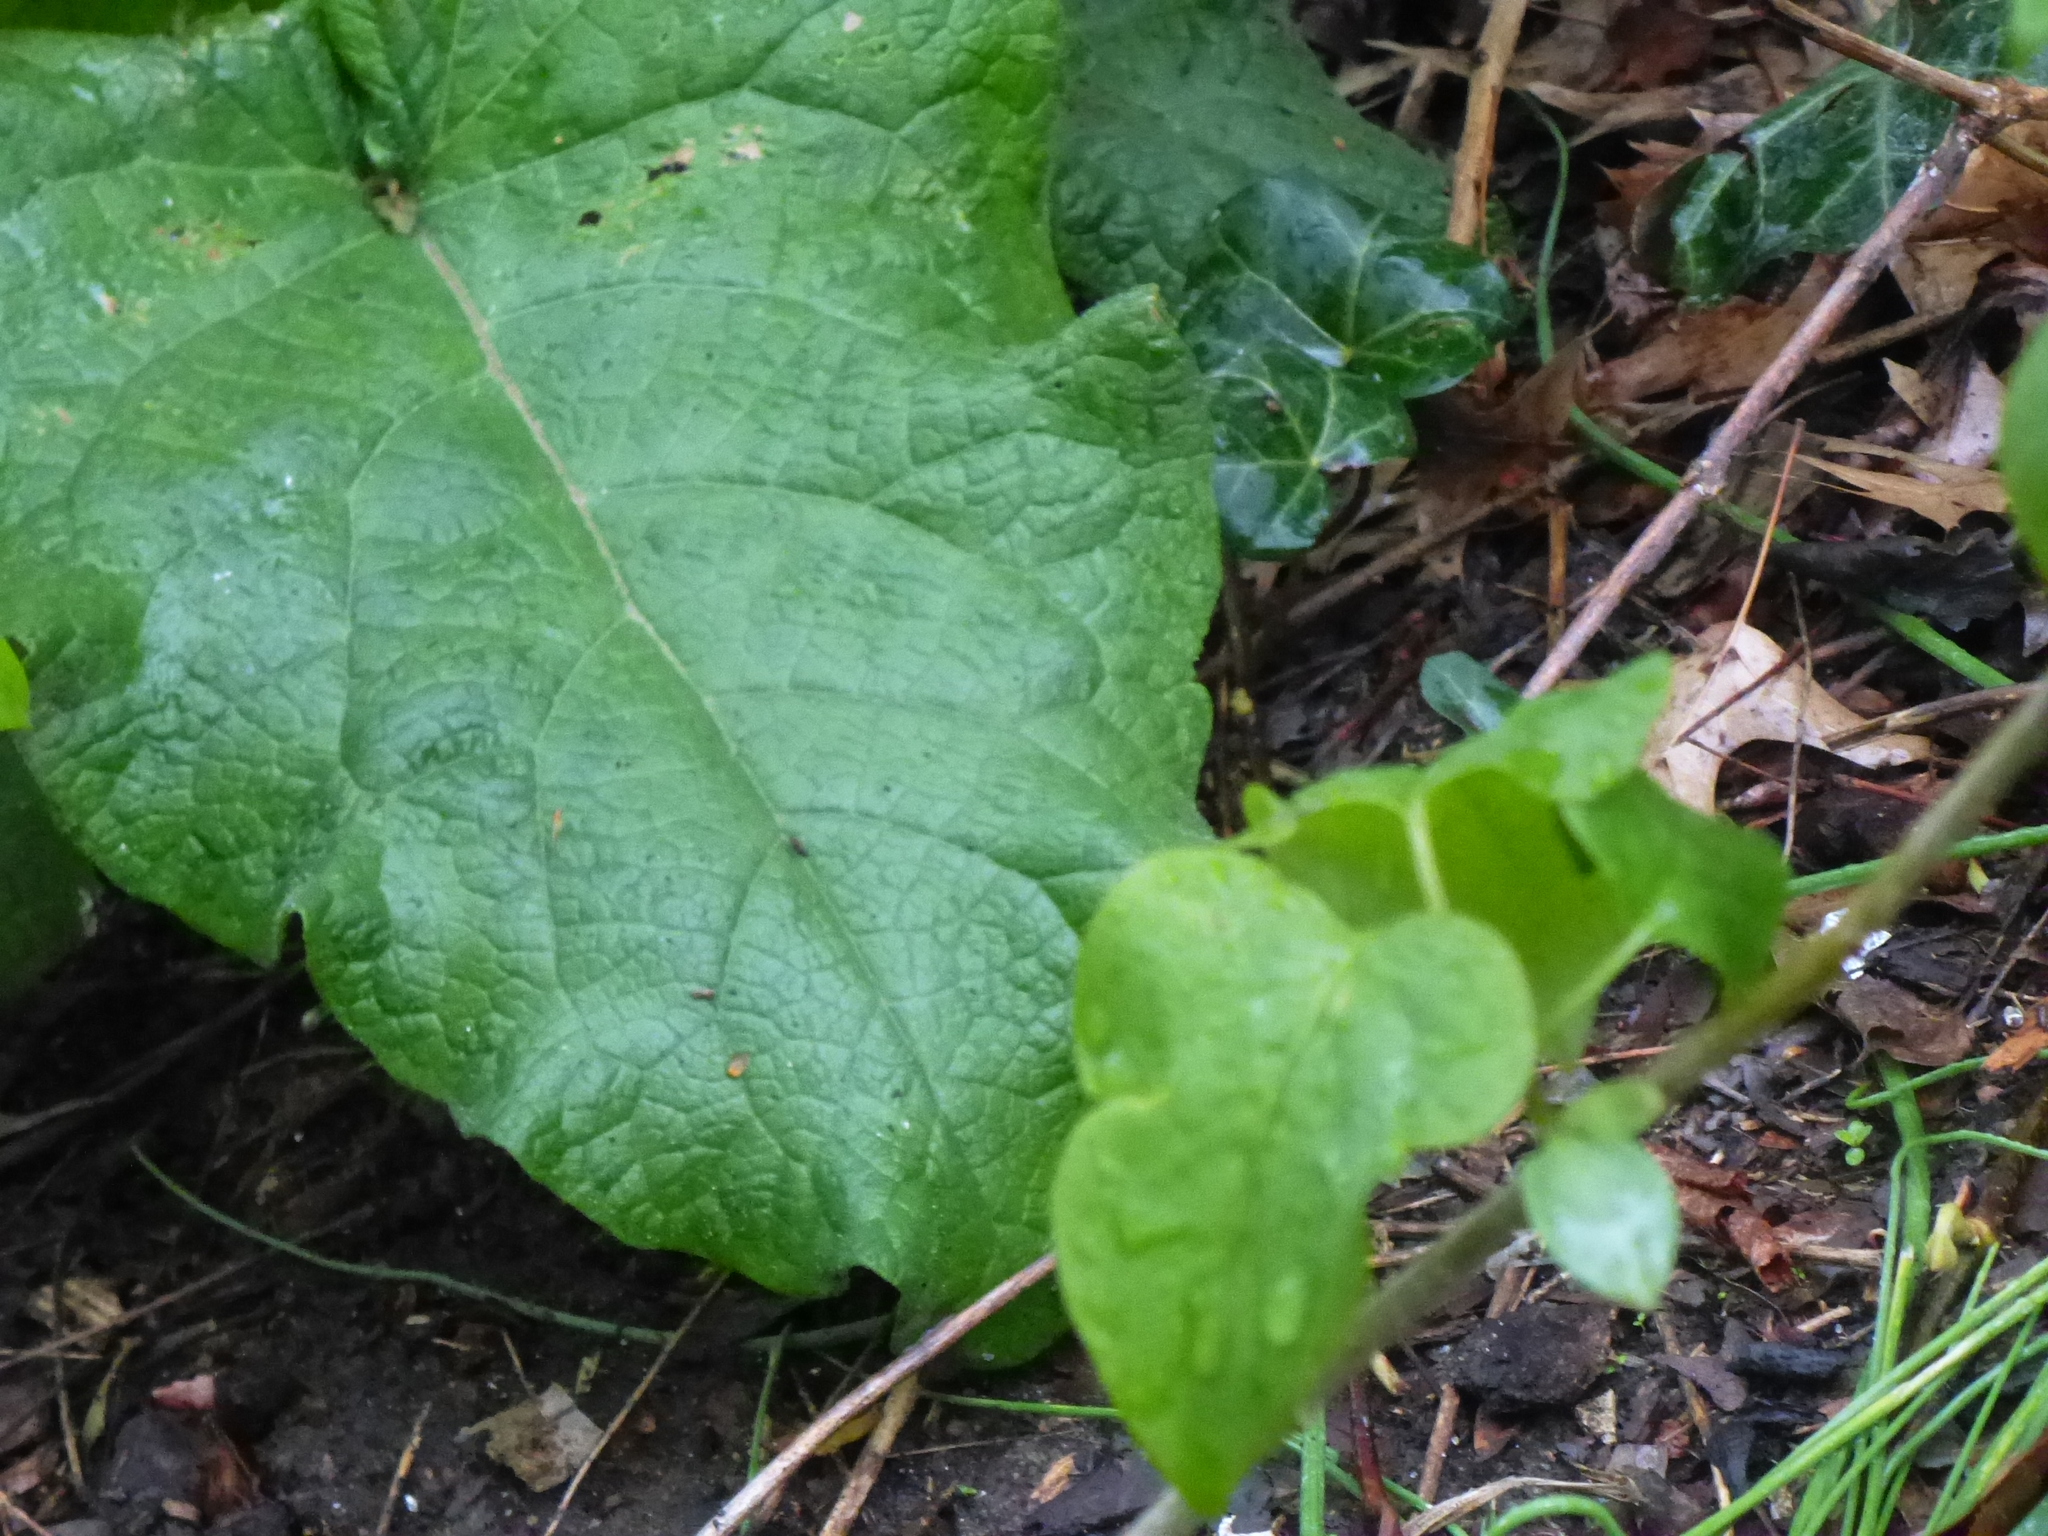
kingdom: Plantae
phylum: Tracheophyta
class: Magnoliopsida
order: Asterales
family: Asteraceae
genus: Arctium
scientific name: Arctium
